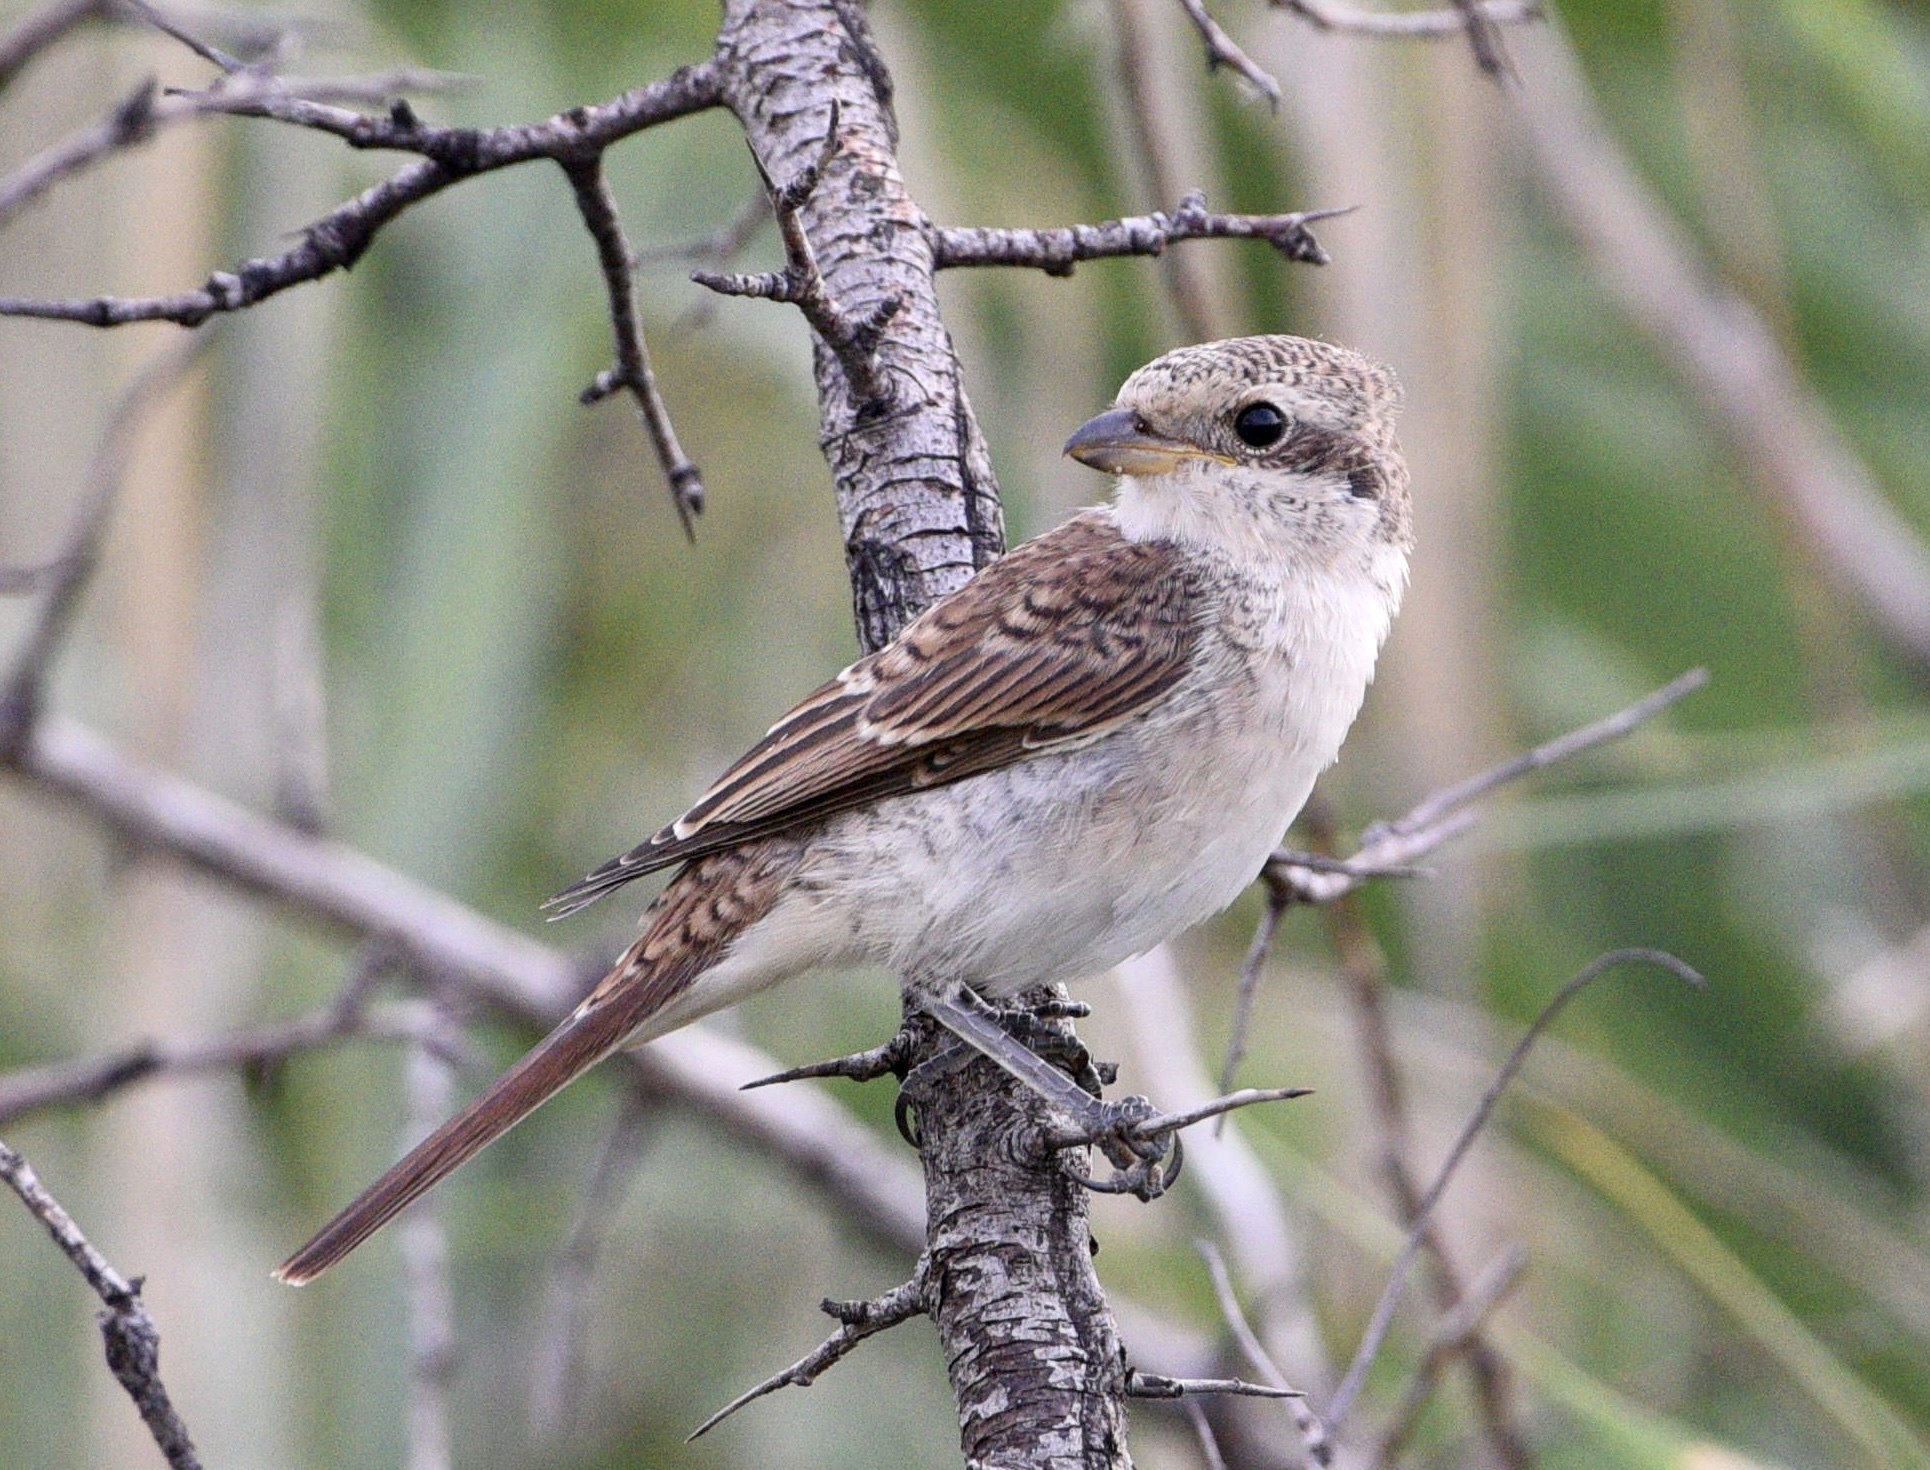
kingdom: Animalia
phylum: Chordata
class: Aves
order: Passeriformes
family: Laniidae
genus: Lanius
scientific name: Lanius collurio
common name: Red-backed shrike
